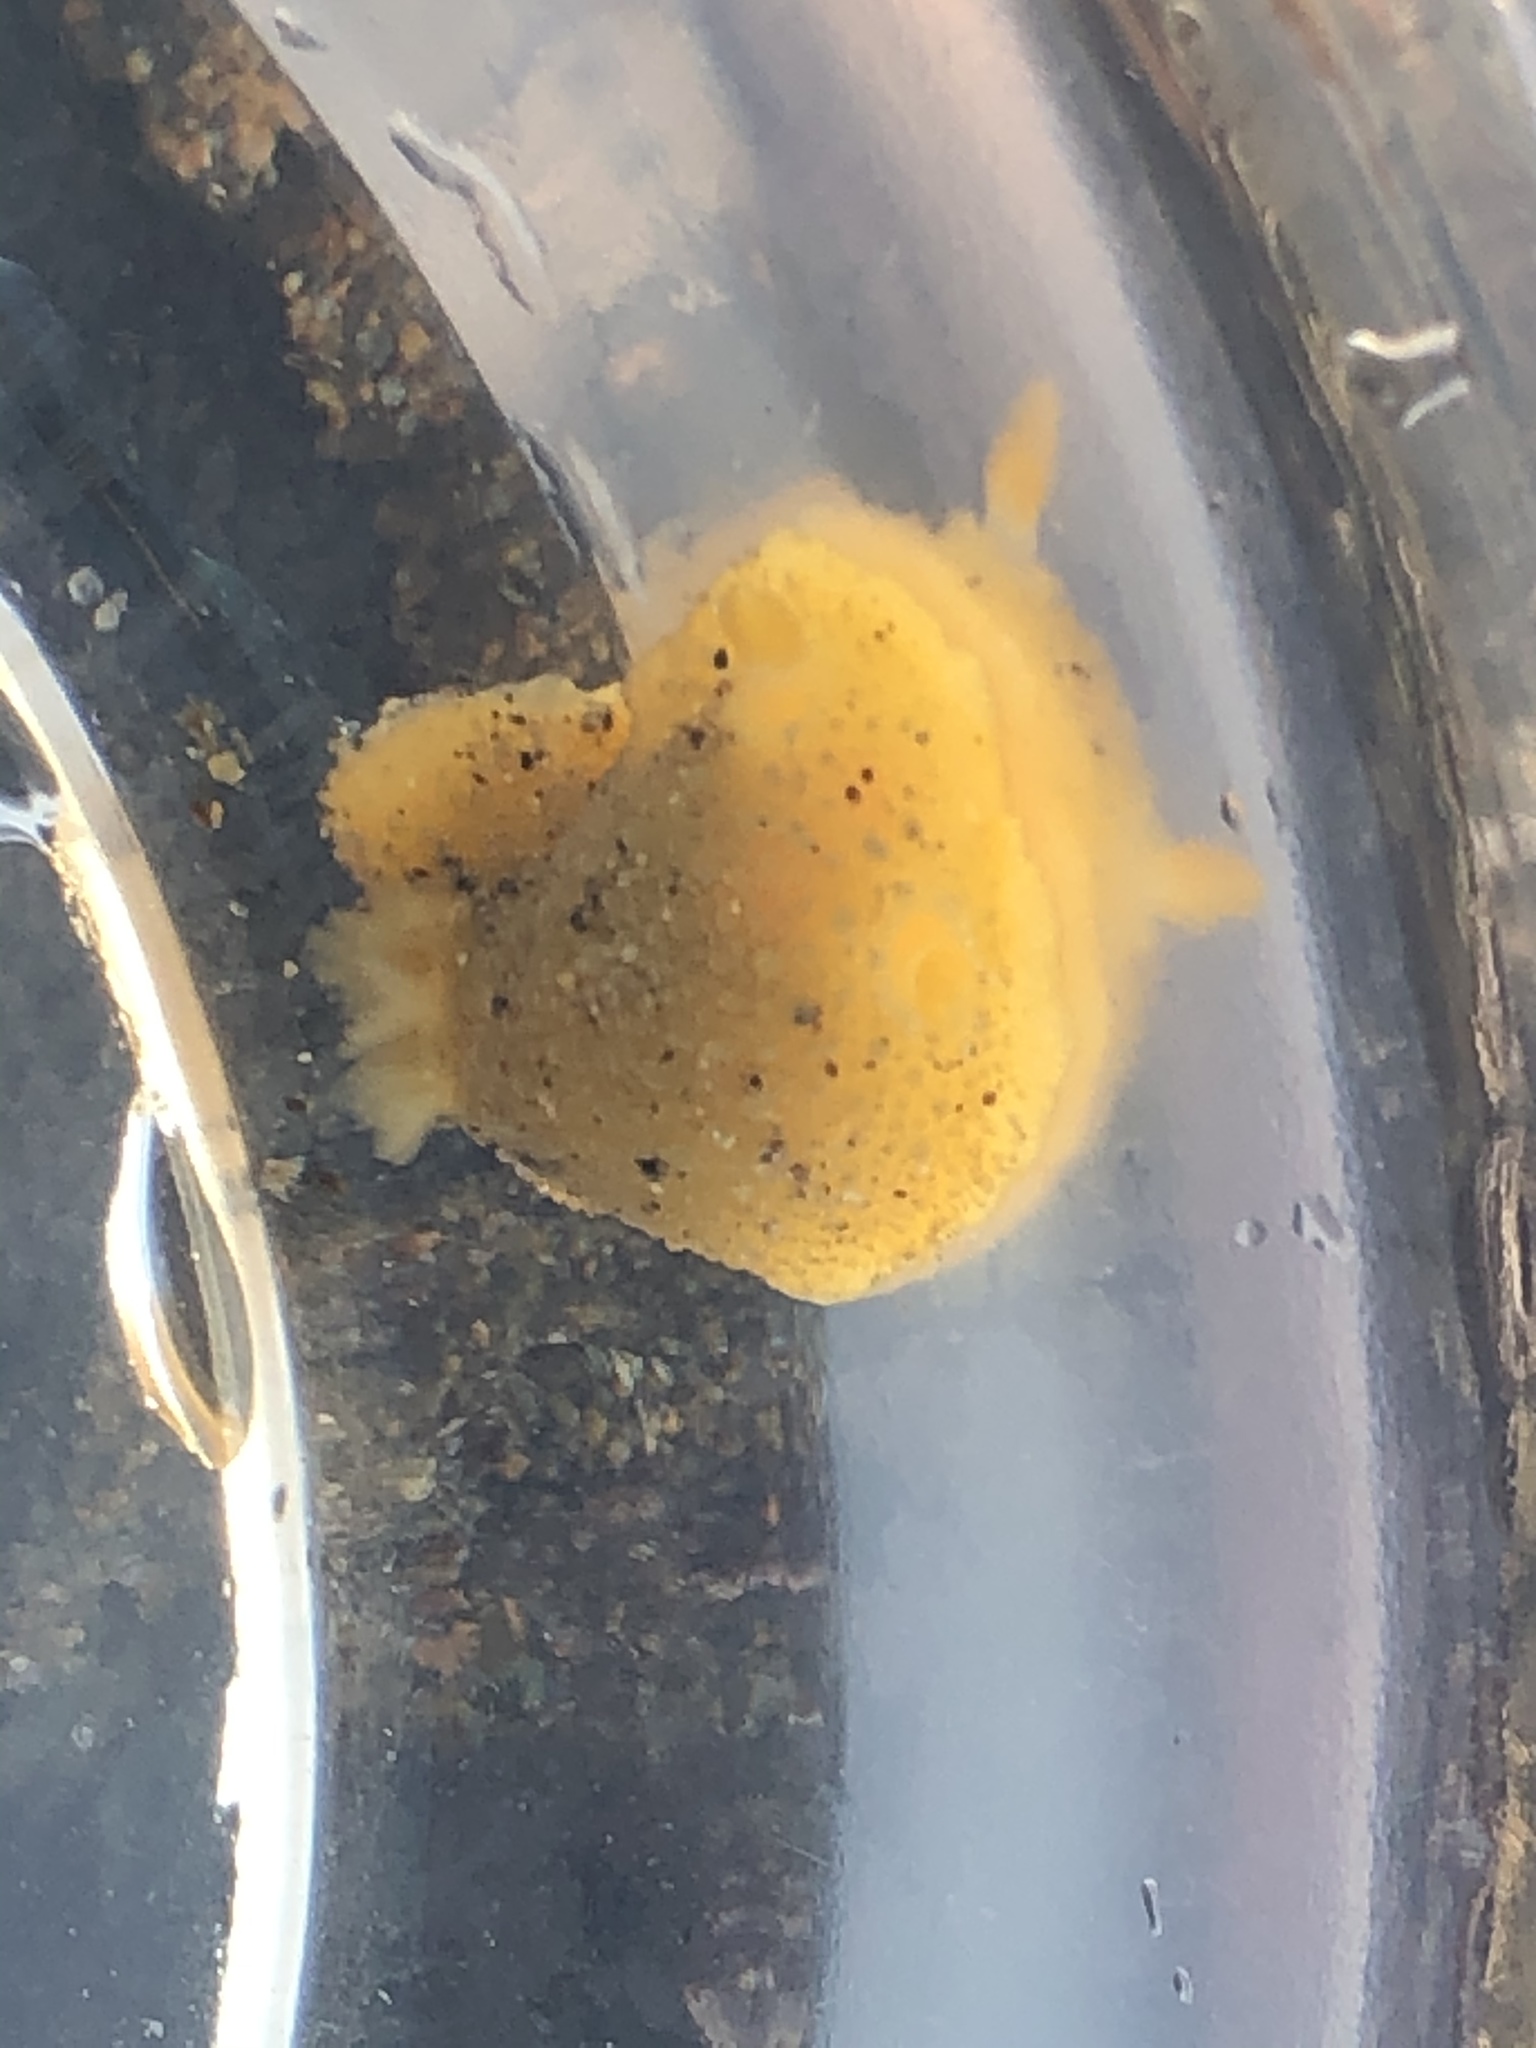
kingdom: Animalia
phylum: Mollusca
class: Gastropoda
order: Nudibranchia
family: Dorididae
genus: Doris
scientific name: Doris montereyensis
